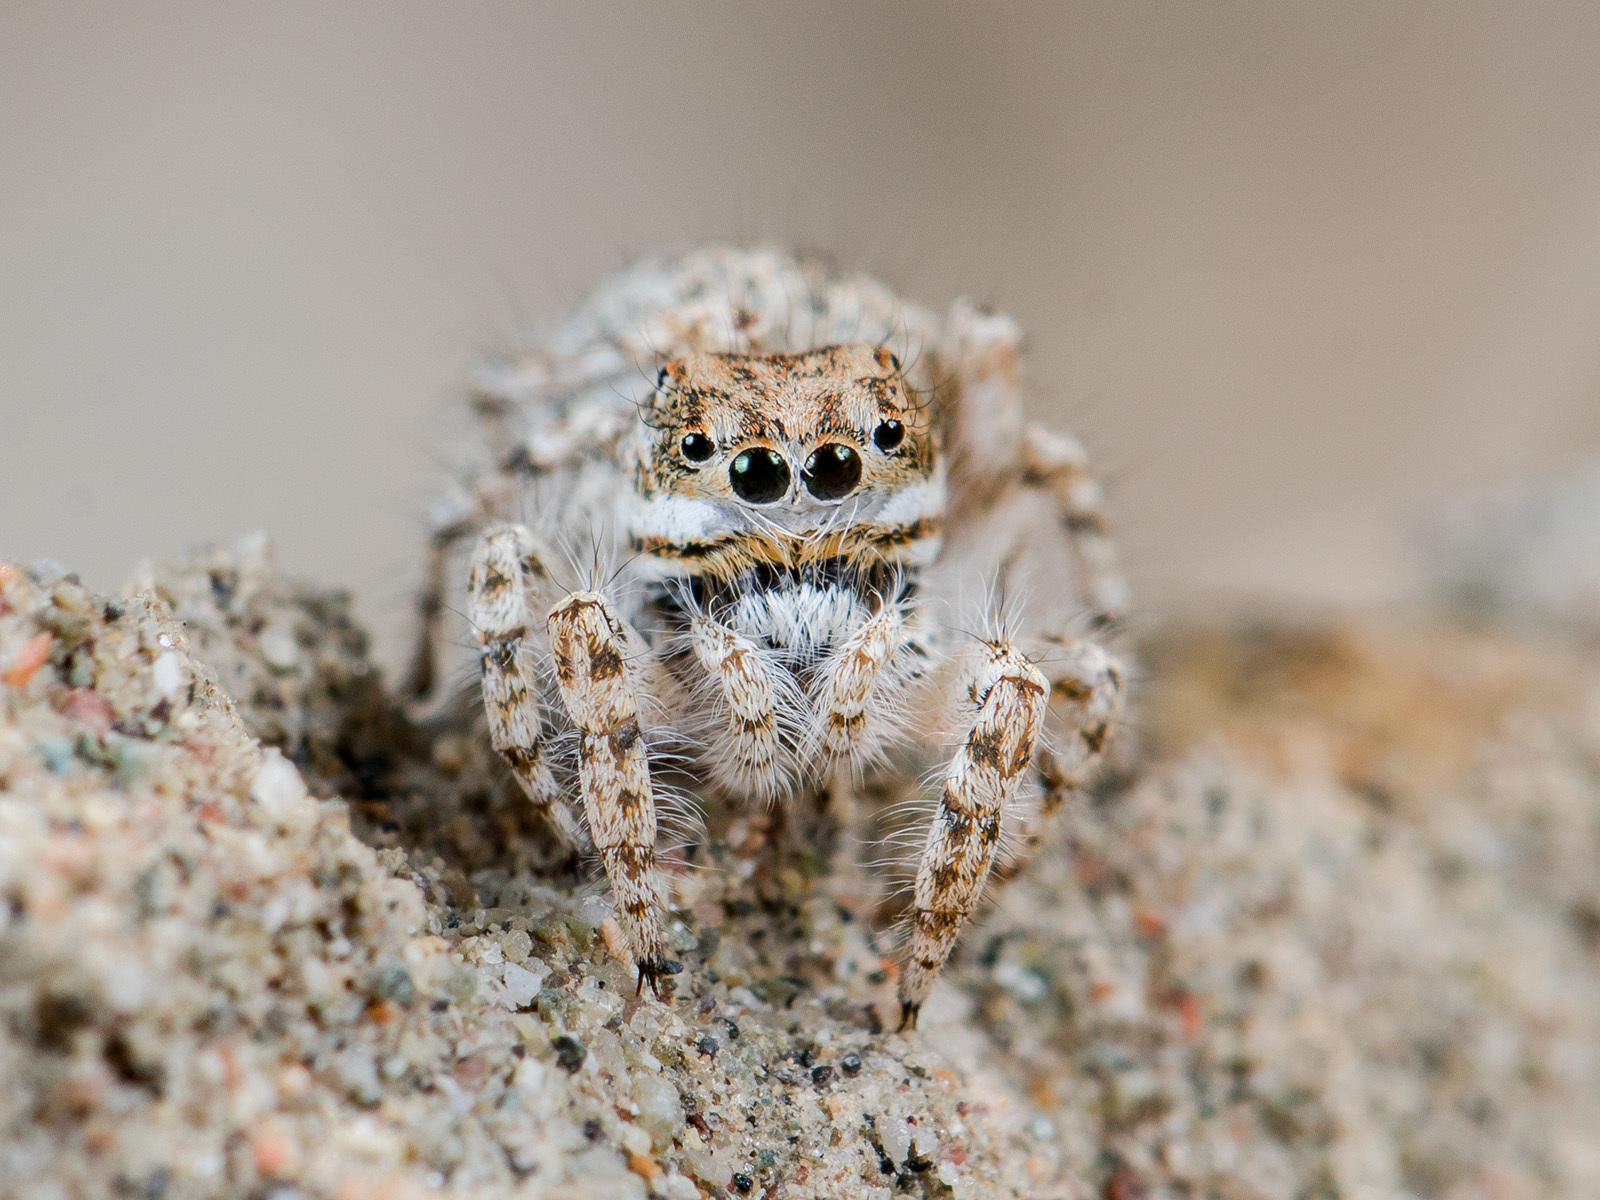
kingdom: Animalia
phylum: Arthropoda
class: Arachnida
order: Araneae
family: Salticidae
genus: Yllenus
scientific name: Yllenus uiguricus
